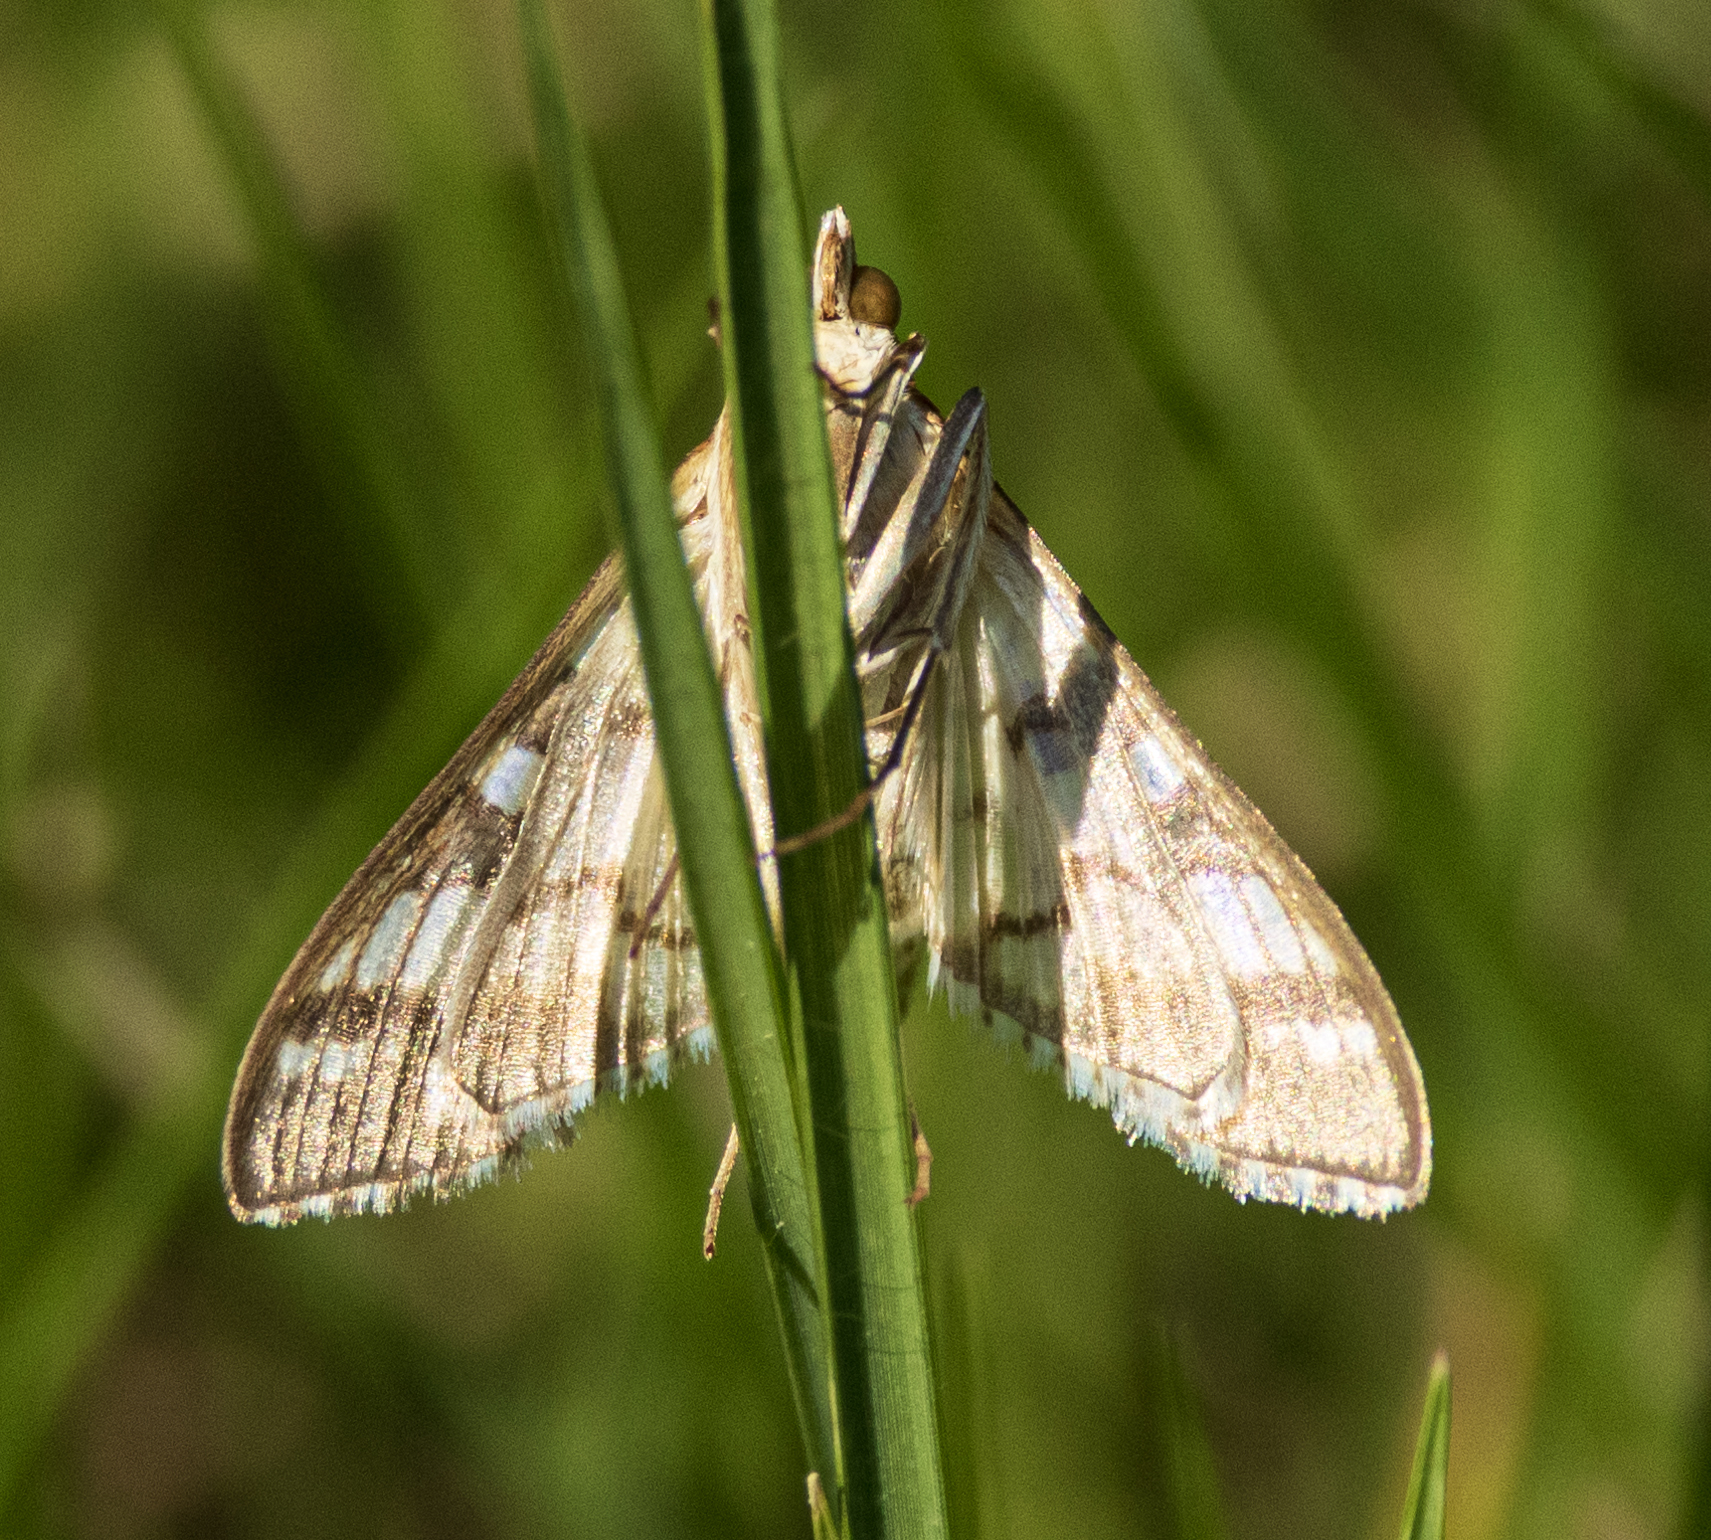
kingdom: Animalia
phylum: Arthropoda
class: Insecta
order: Lepidoptera
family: Crambidae
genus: Epipagis
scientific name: Epipagis fenestralis
